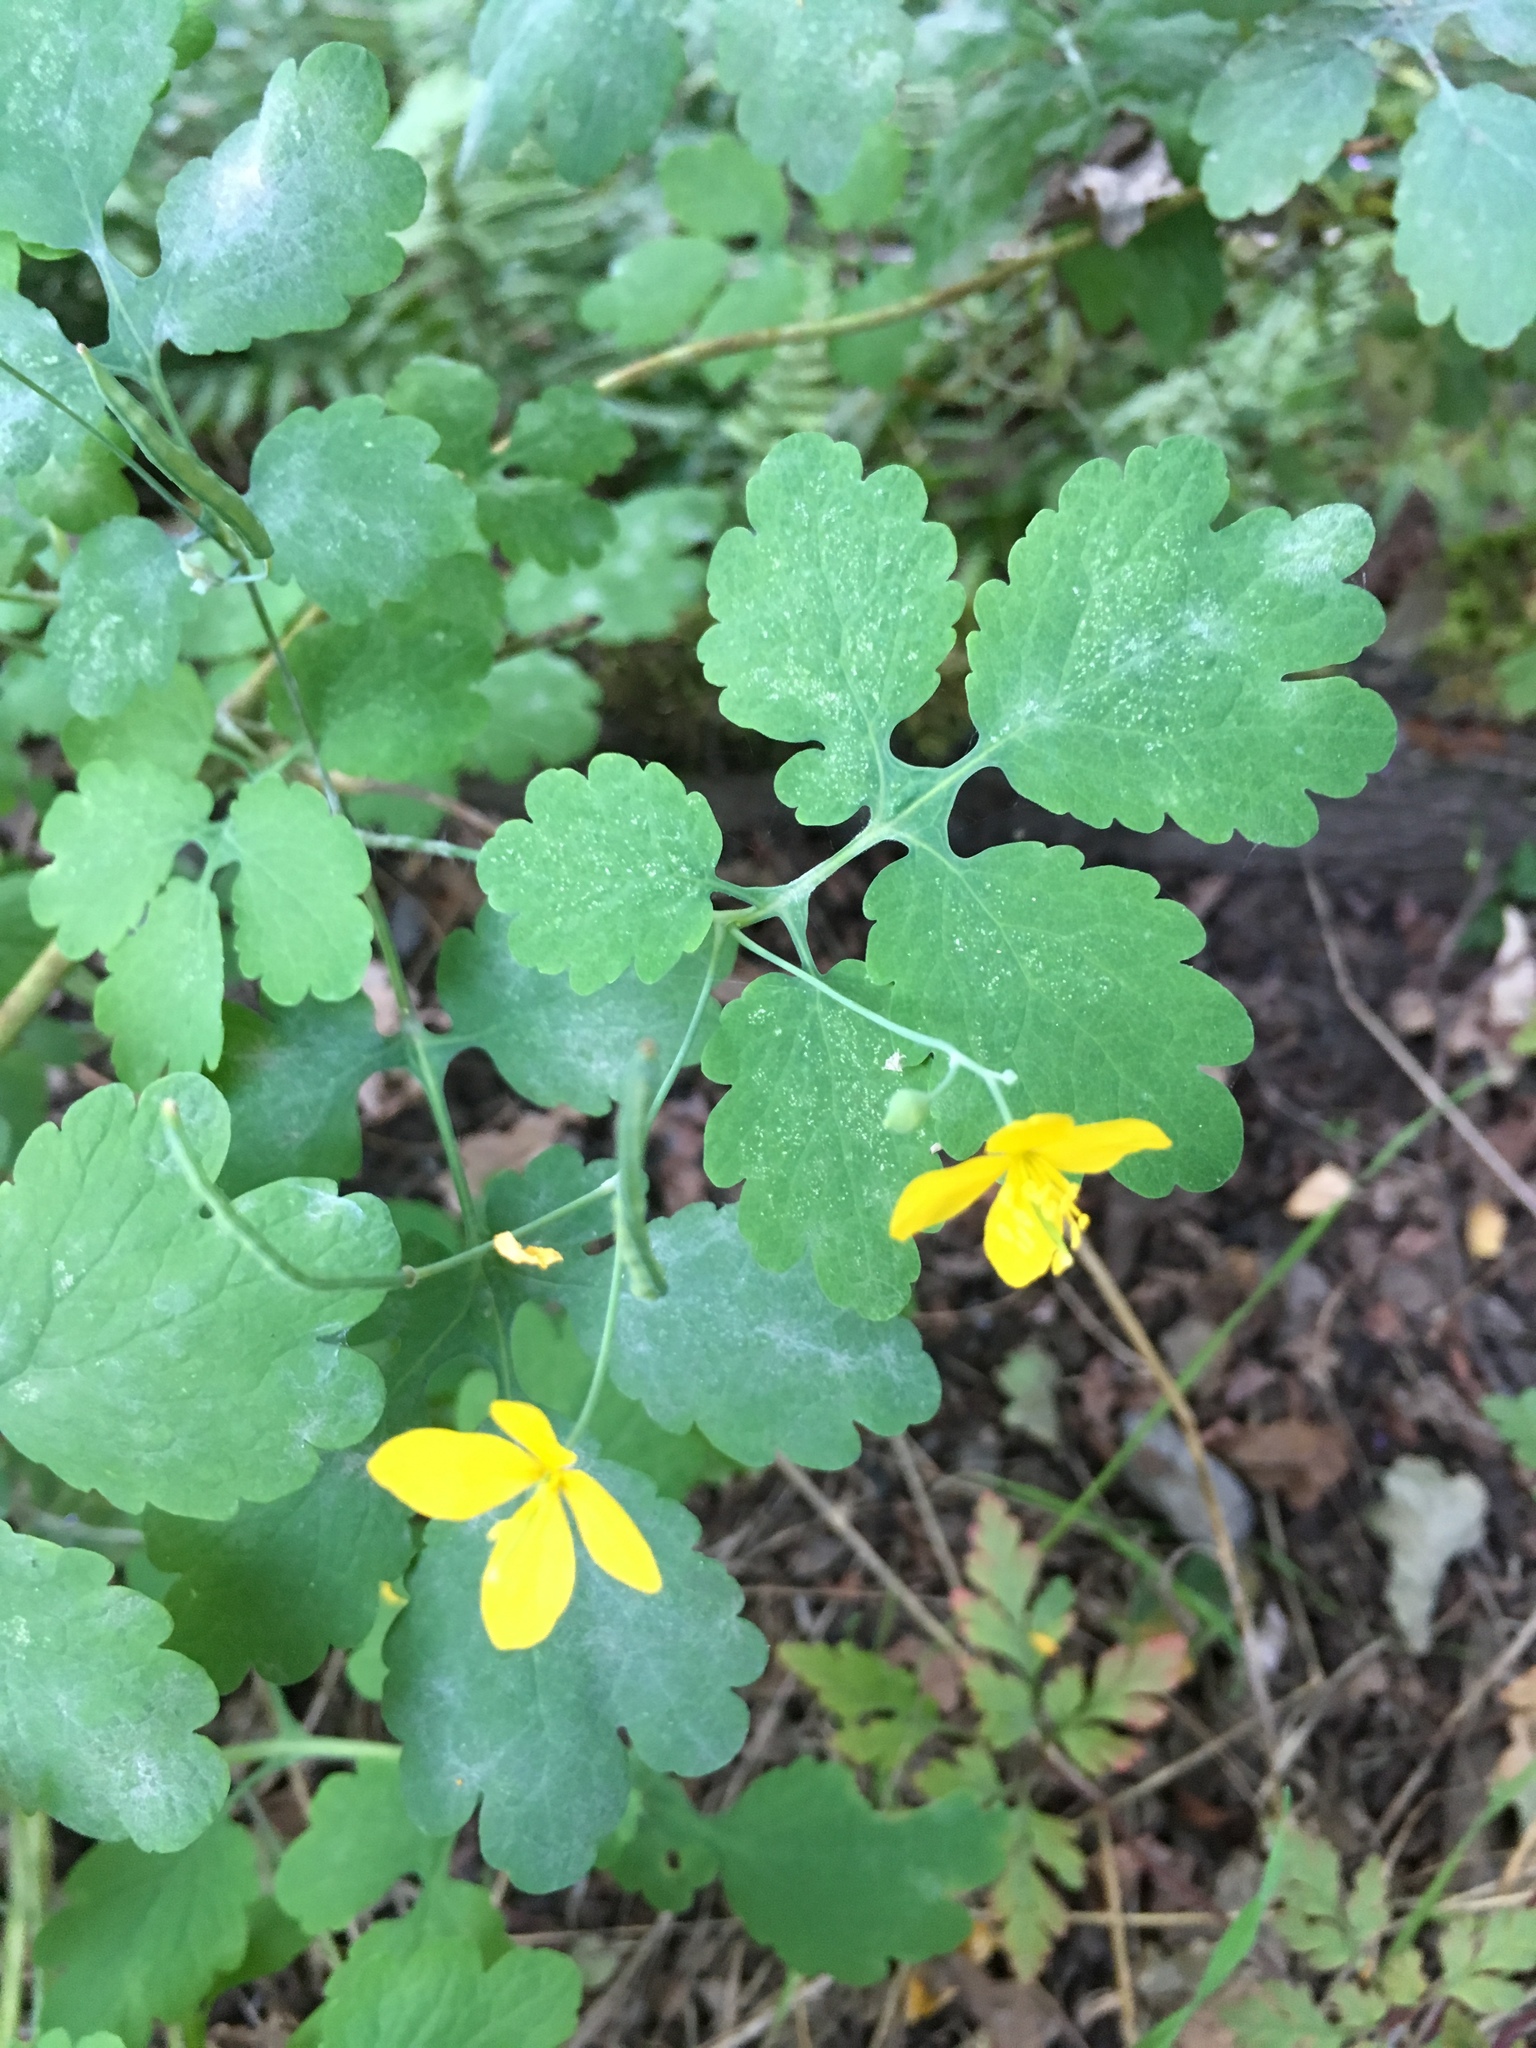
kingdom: Plantae
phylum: Tracheophyta
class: Magnoliopsida
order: Ranunculales
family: Papaveraceae
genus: Chelidonium
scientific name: Chelidonium majus
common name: Greater celandine
